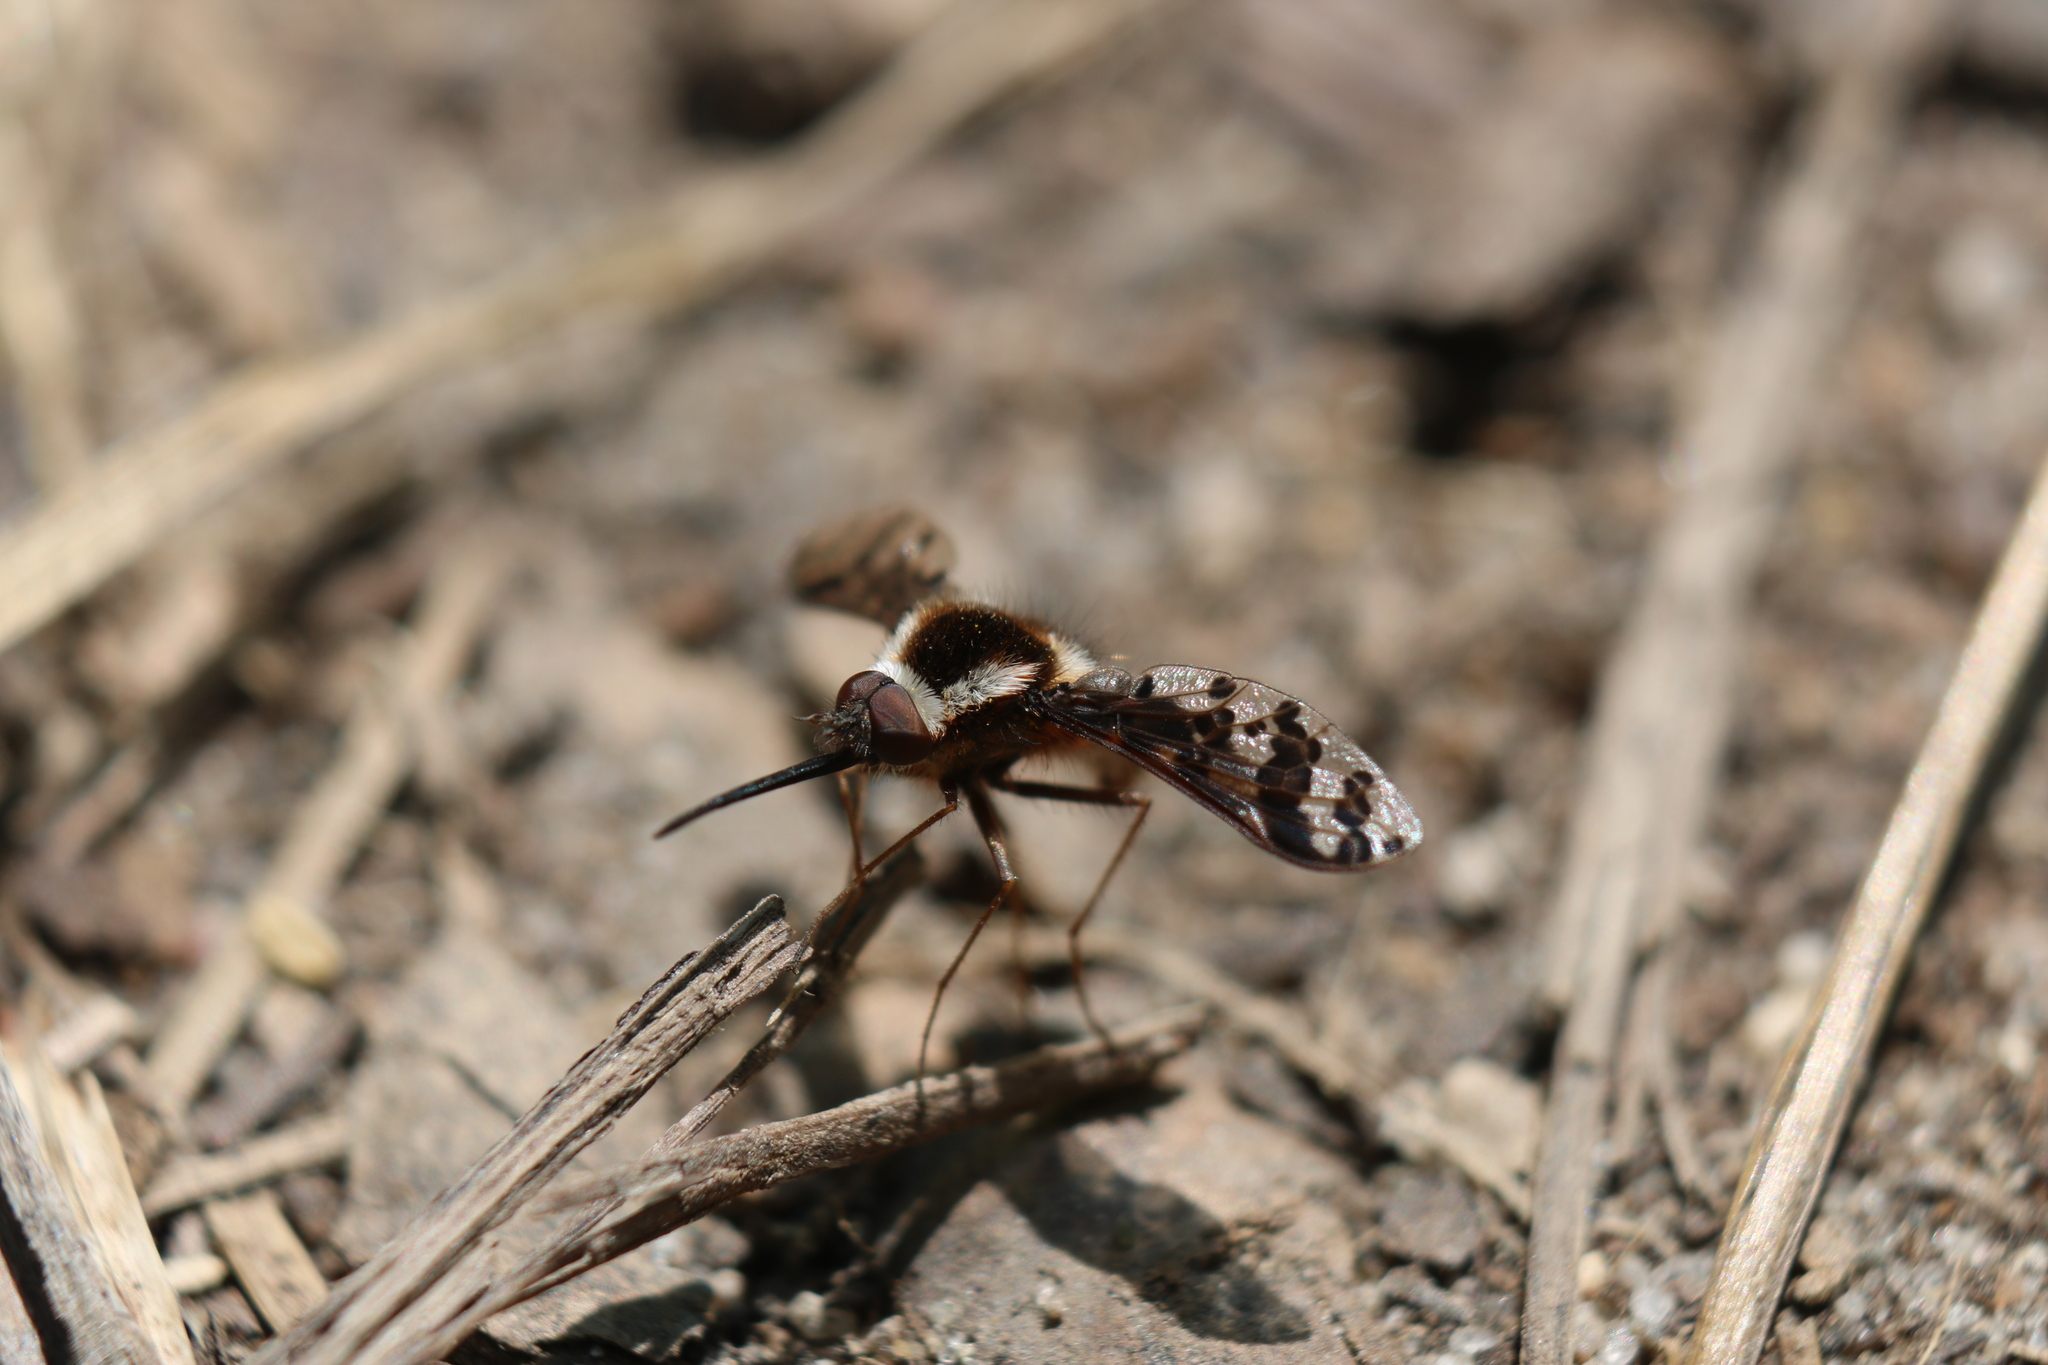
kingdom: Animalia
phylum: Arthropoda
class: Insecta
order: Diptera
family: Bombyliidae
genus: Bombylius
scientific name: Bombylius pulchellus
